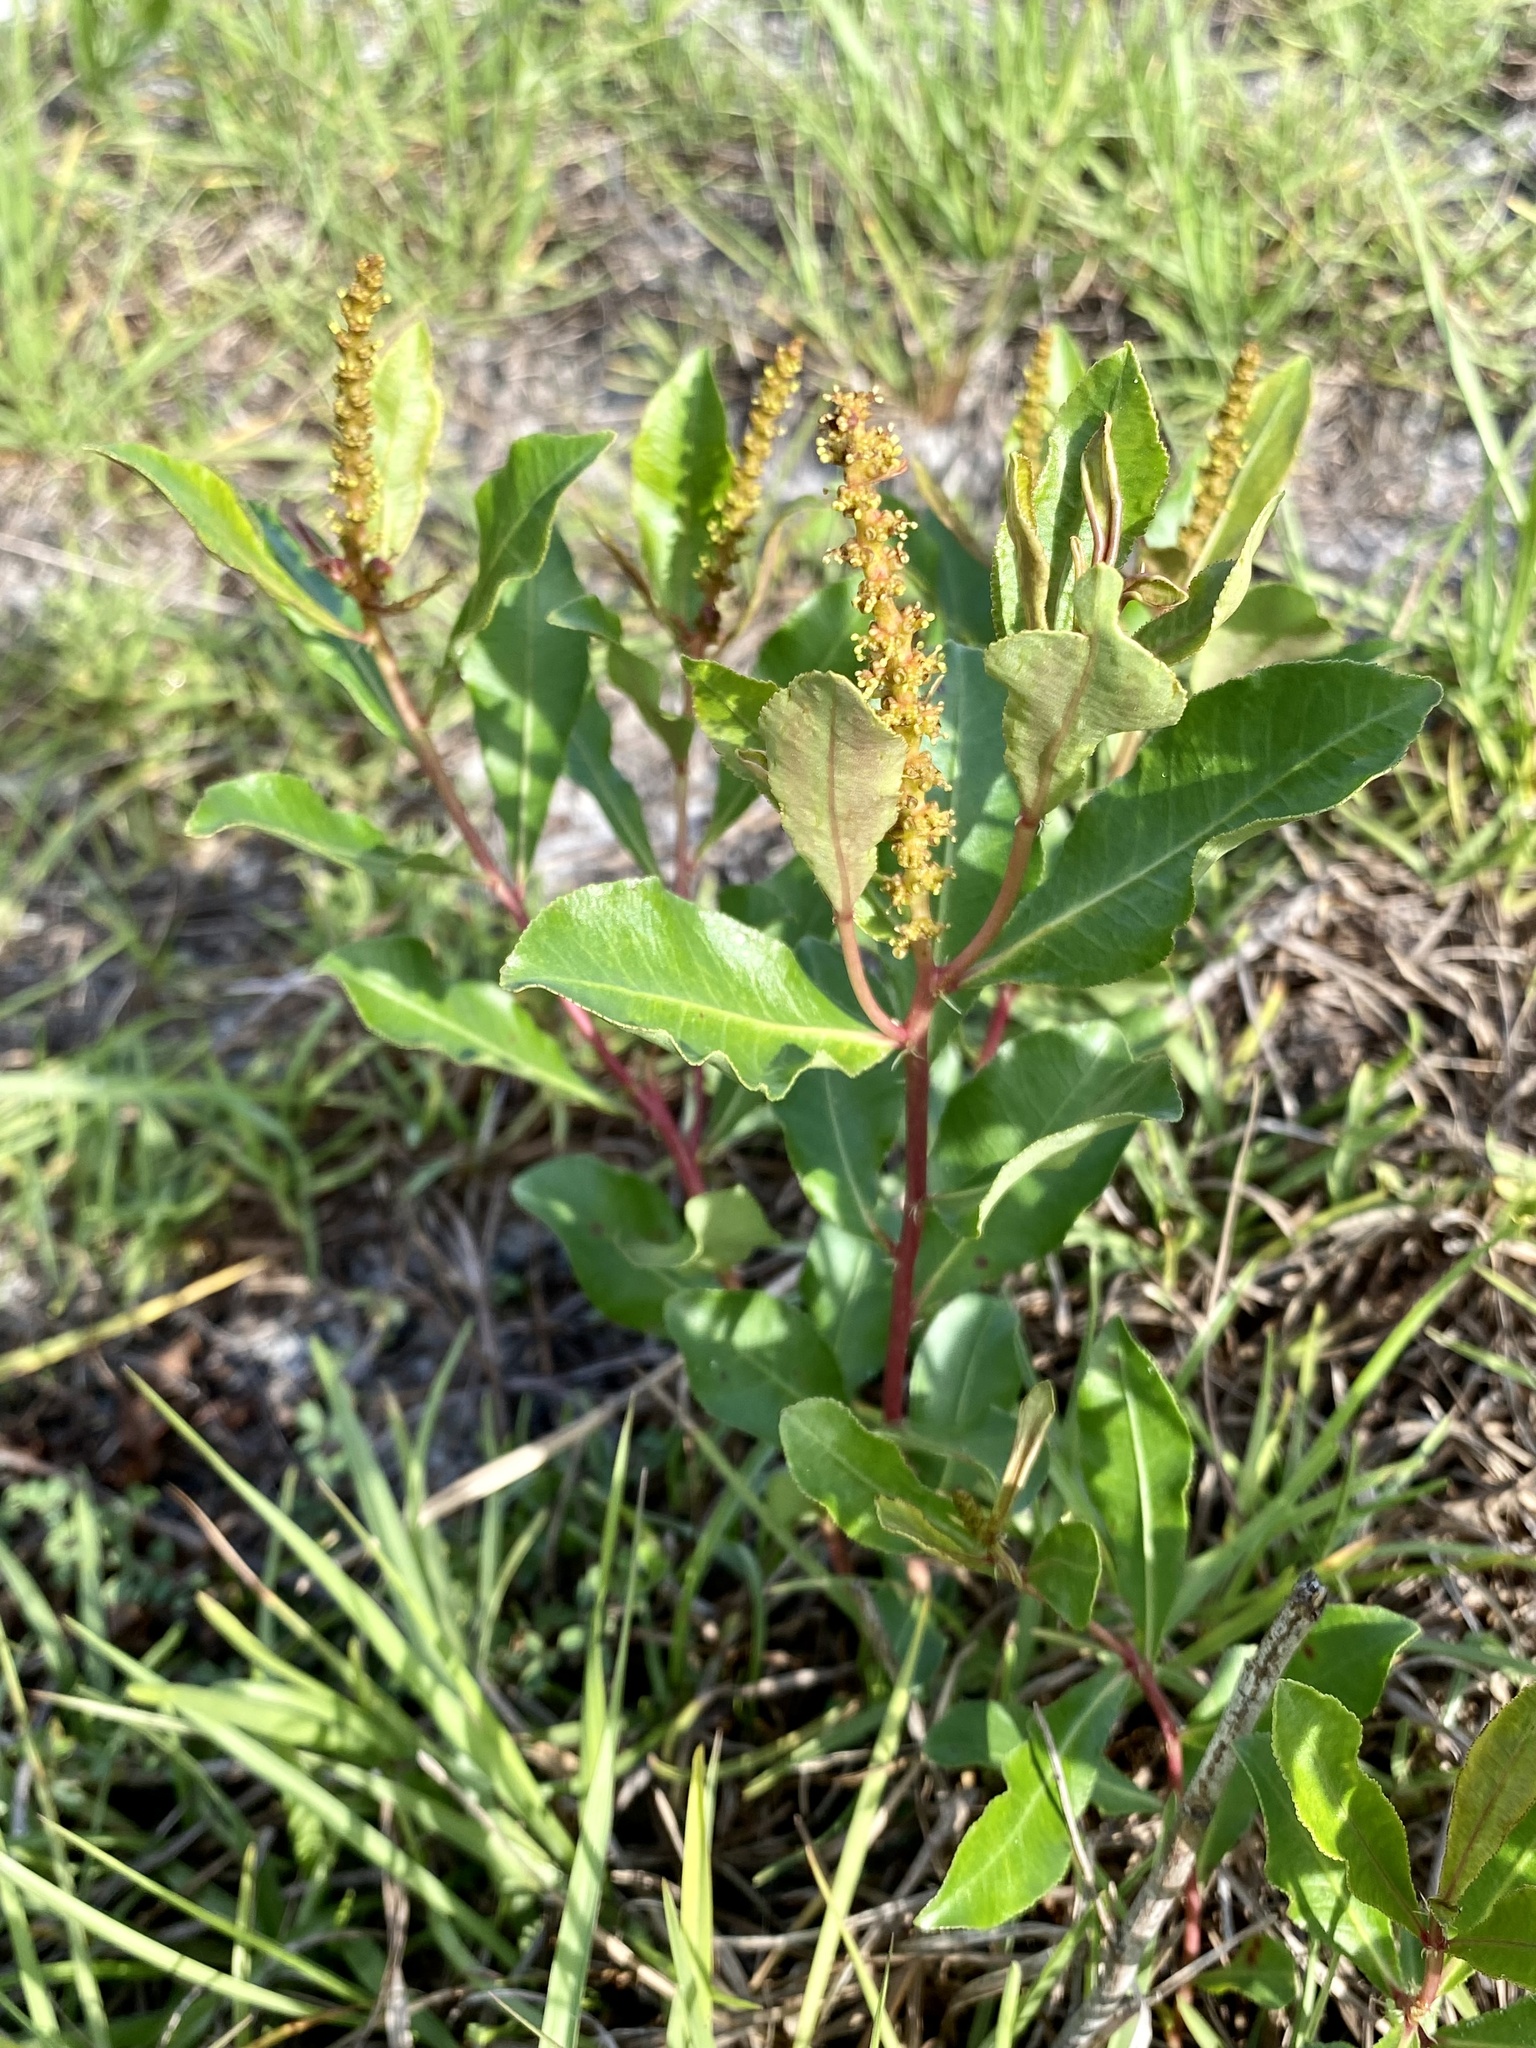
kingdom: Plantae
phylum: Tracheophyta
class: Magnoliopsida
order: Malpighiales
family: Euphorbiaceae
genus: Stillingia
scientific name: Stillingia sylvatica
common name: Queen's-delight
